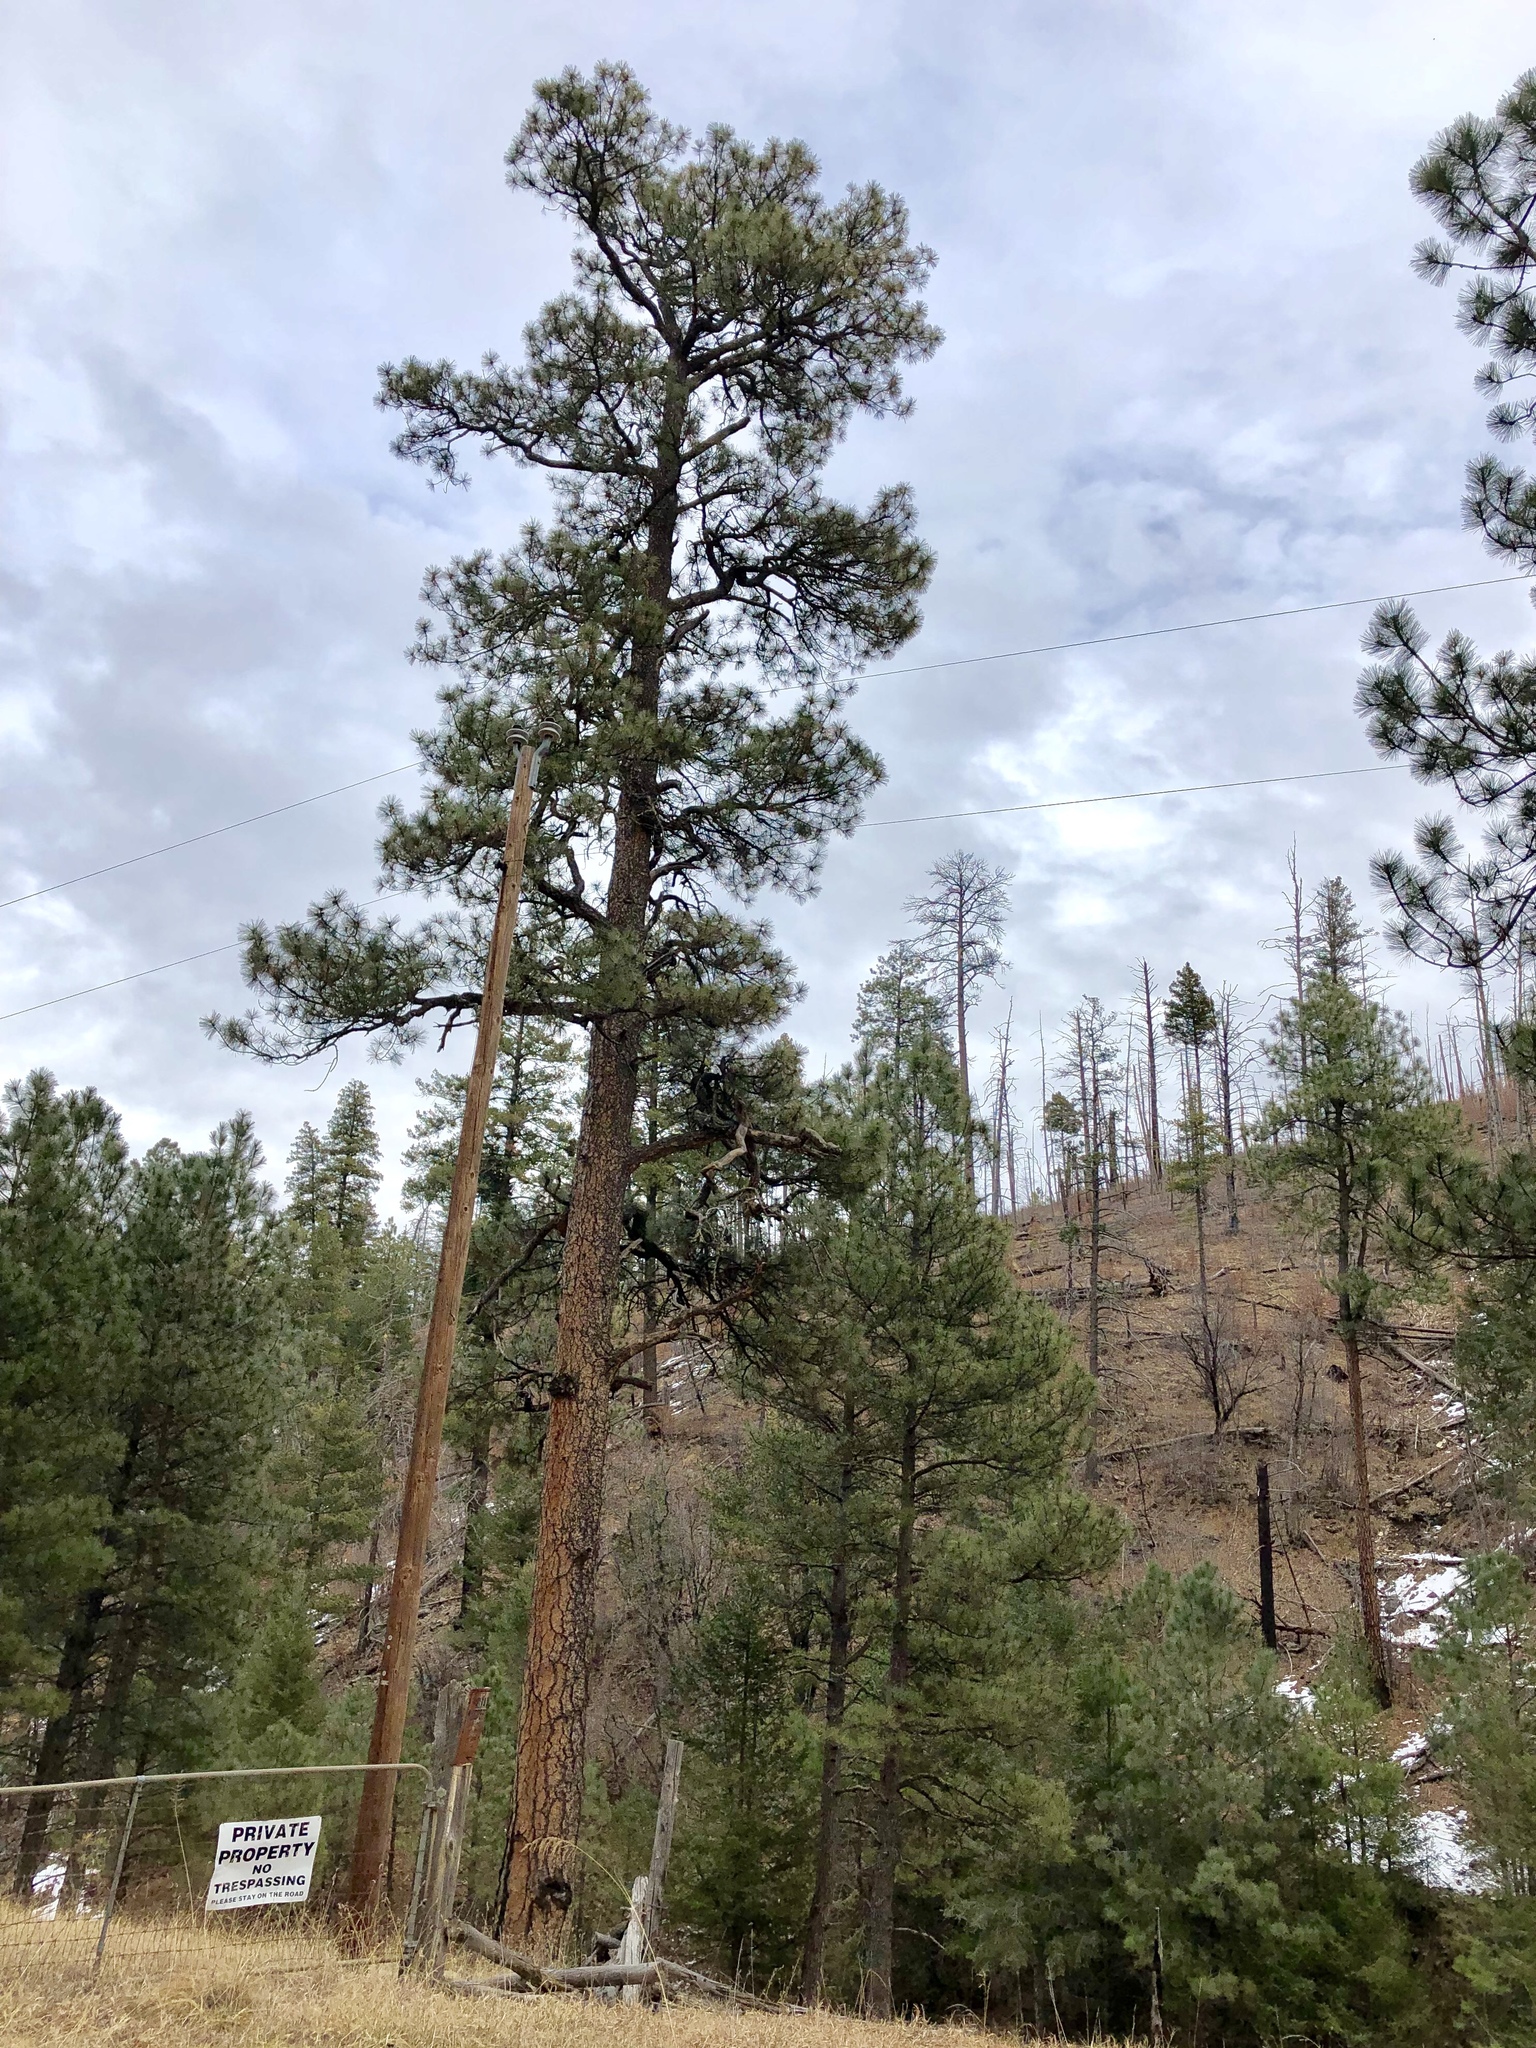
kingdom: Plantae
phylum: Tracheophyta
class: Pinopsida
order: Pinales
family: Pinaceae
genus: Pinus
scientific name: Pinus ponderosa
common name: Western yellow-pine
